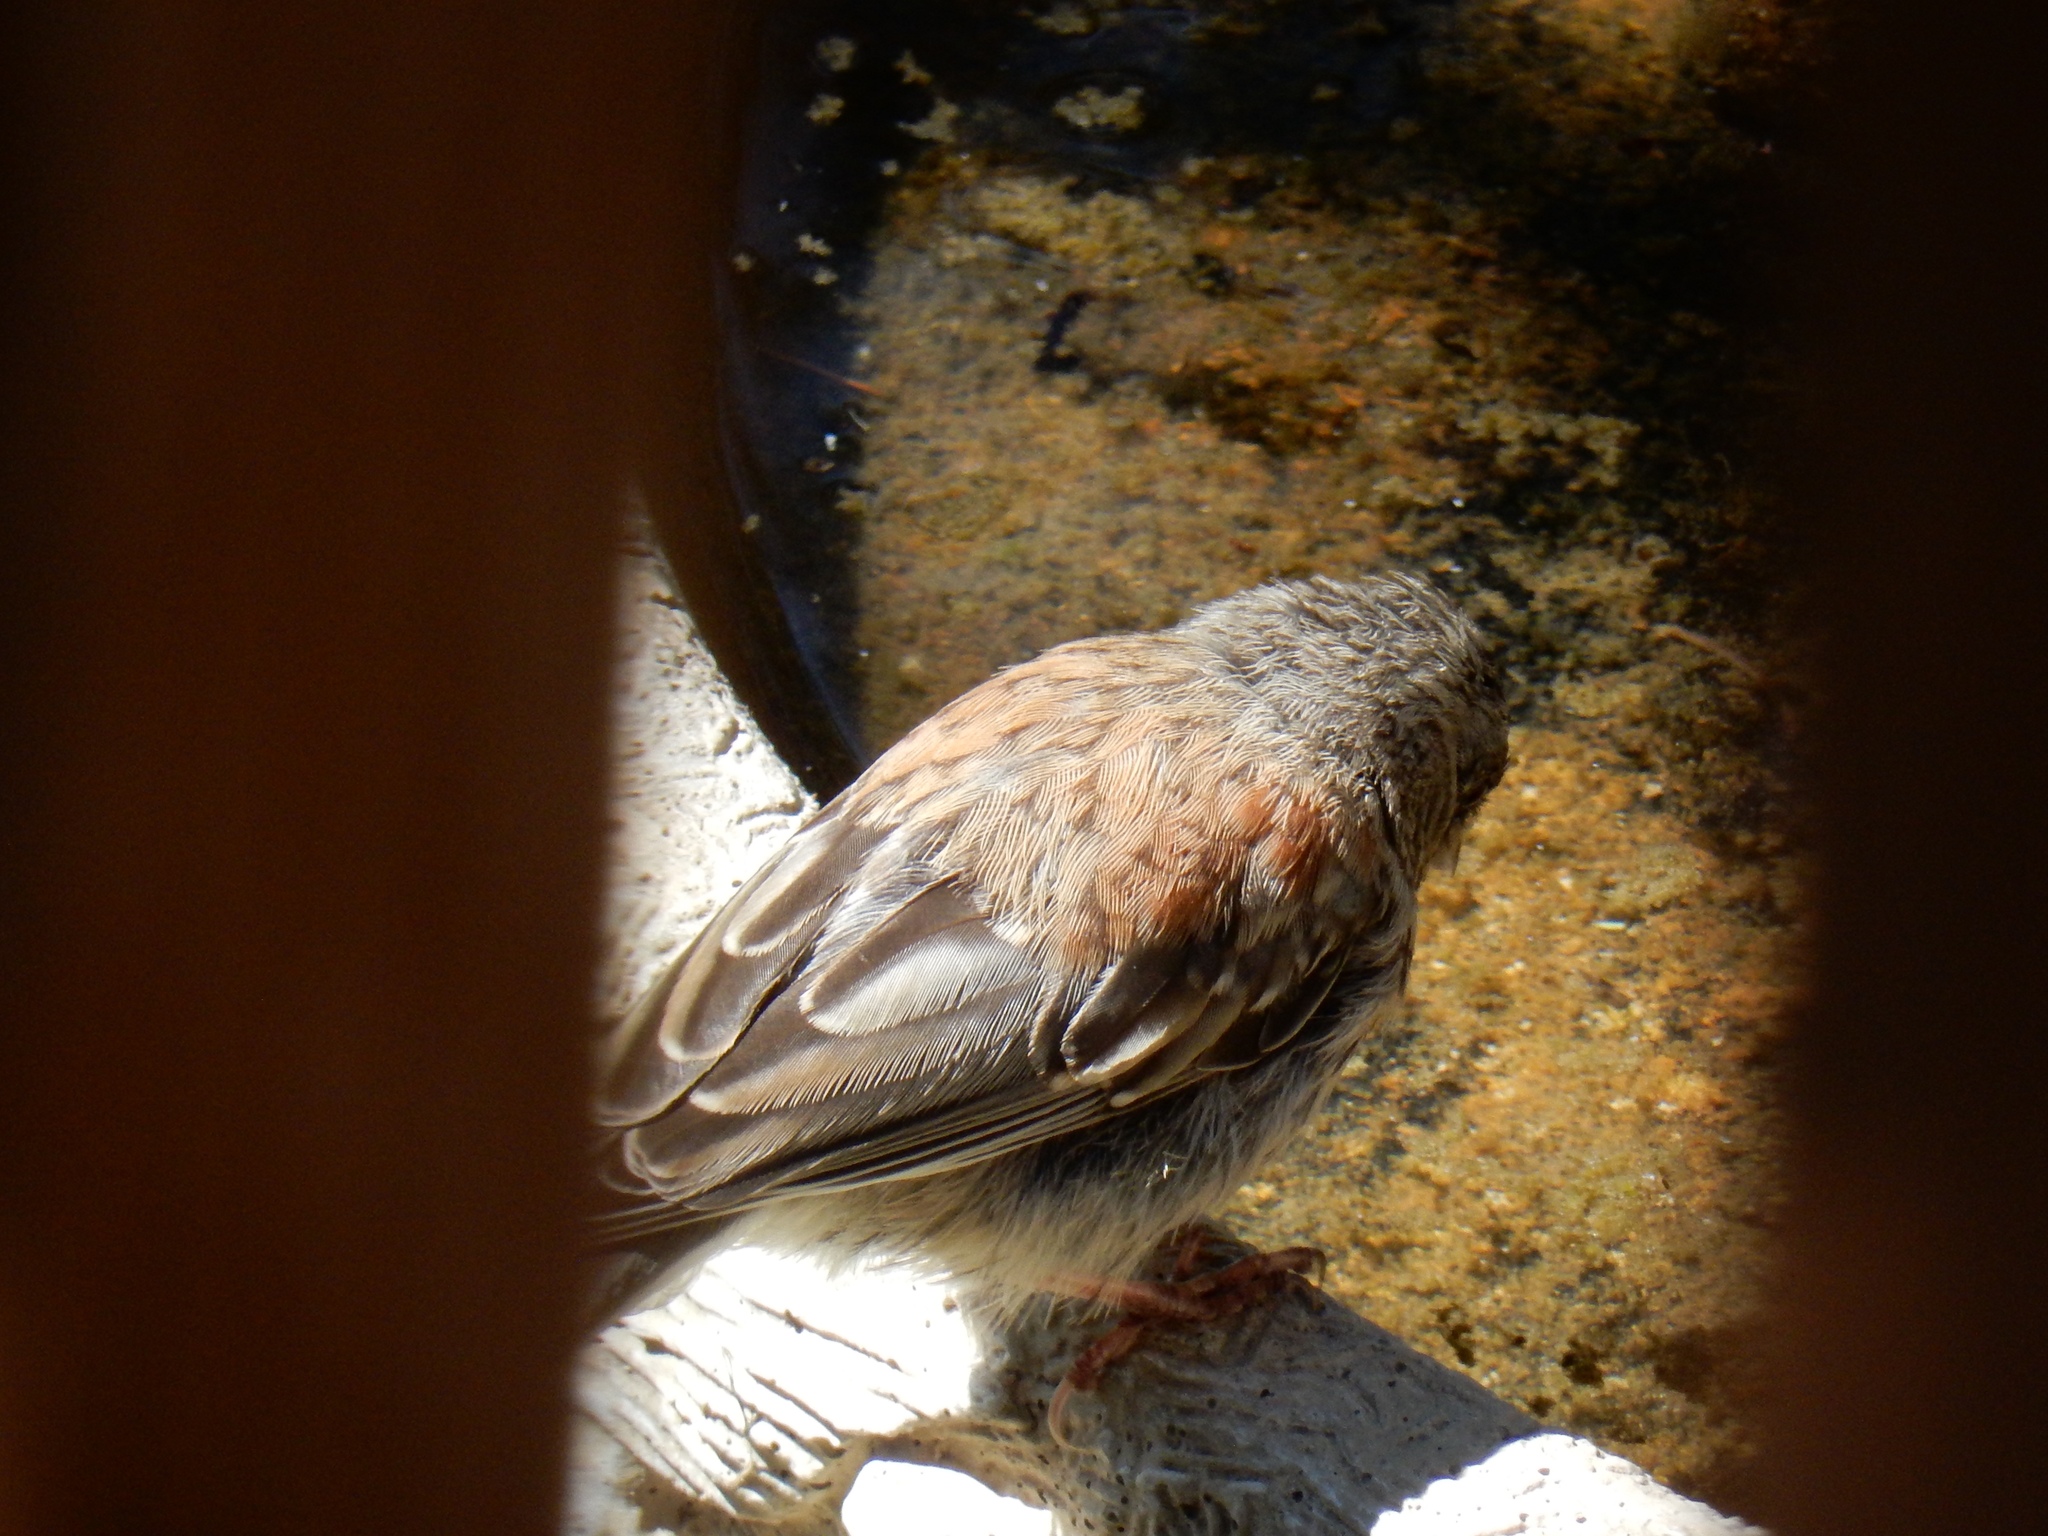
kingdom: Animalia
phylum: Chordata
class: Aves
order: Passeriformes
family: Passerellidae
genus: Junco
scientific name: Junco hyemalis
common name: Dark-eyed junco
